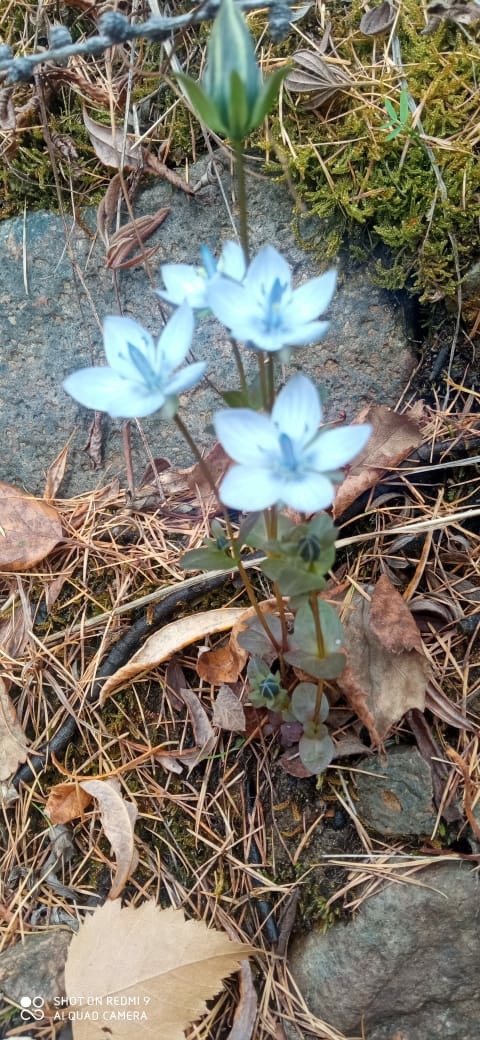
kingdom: Plantae
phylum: Tracheophyta
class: Magnoliopsida
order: Gentianales
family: Gentianaceae
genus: Lomatogonium
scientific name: Lomatogonium carinthiacum
